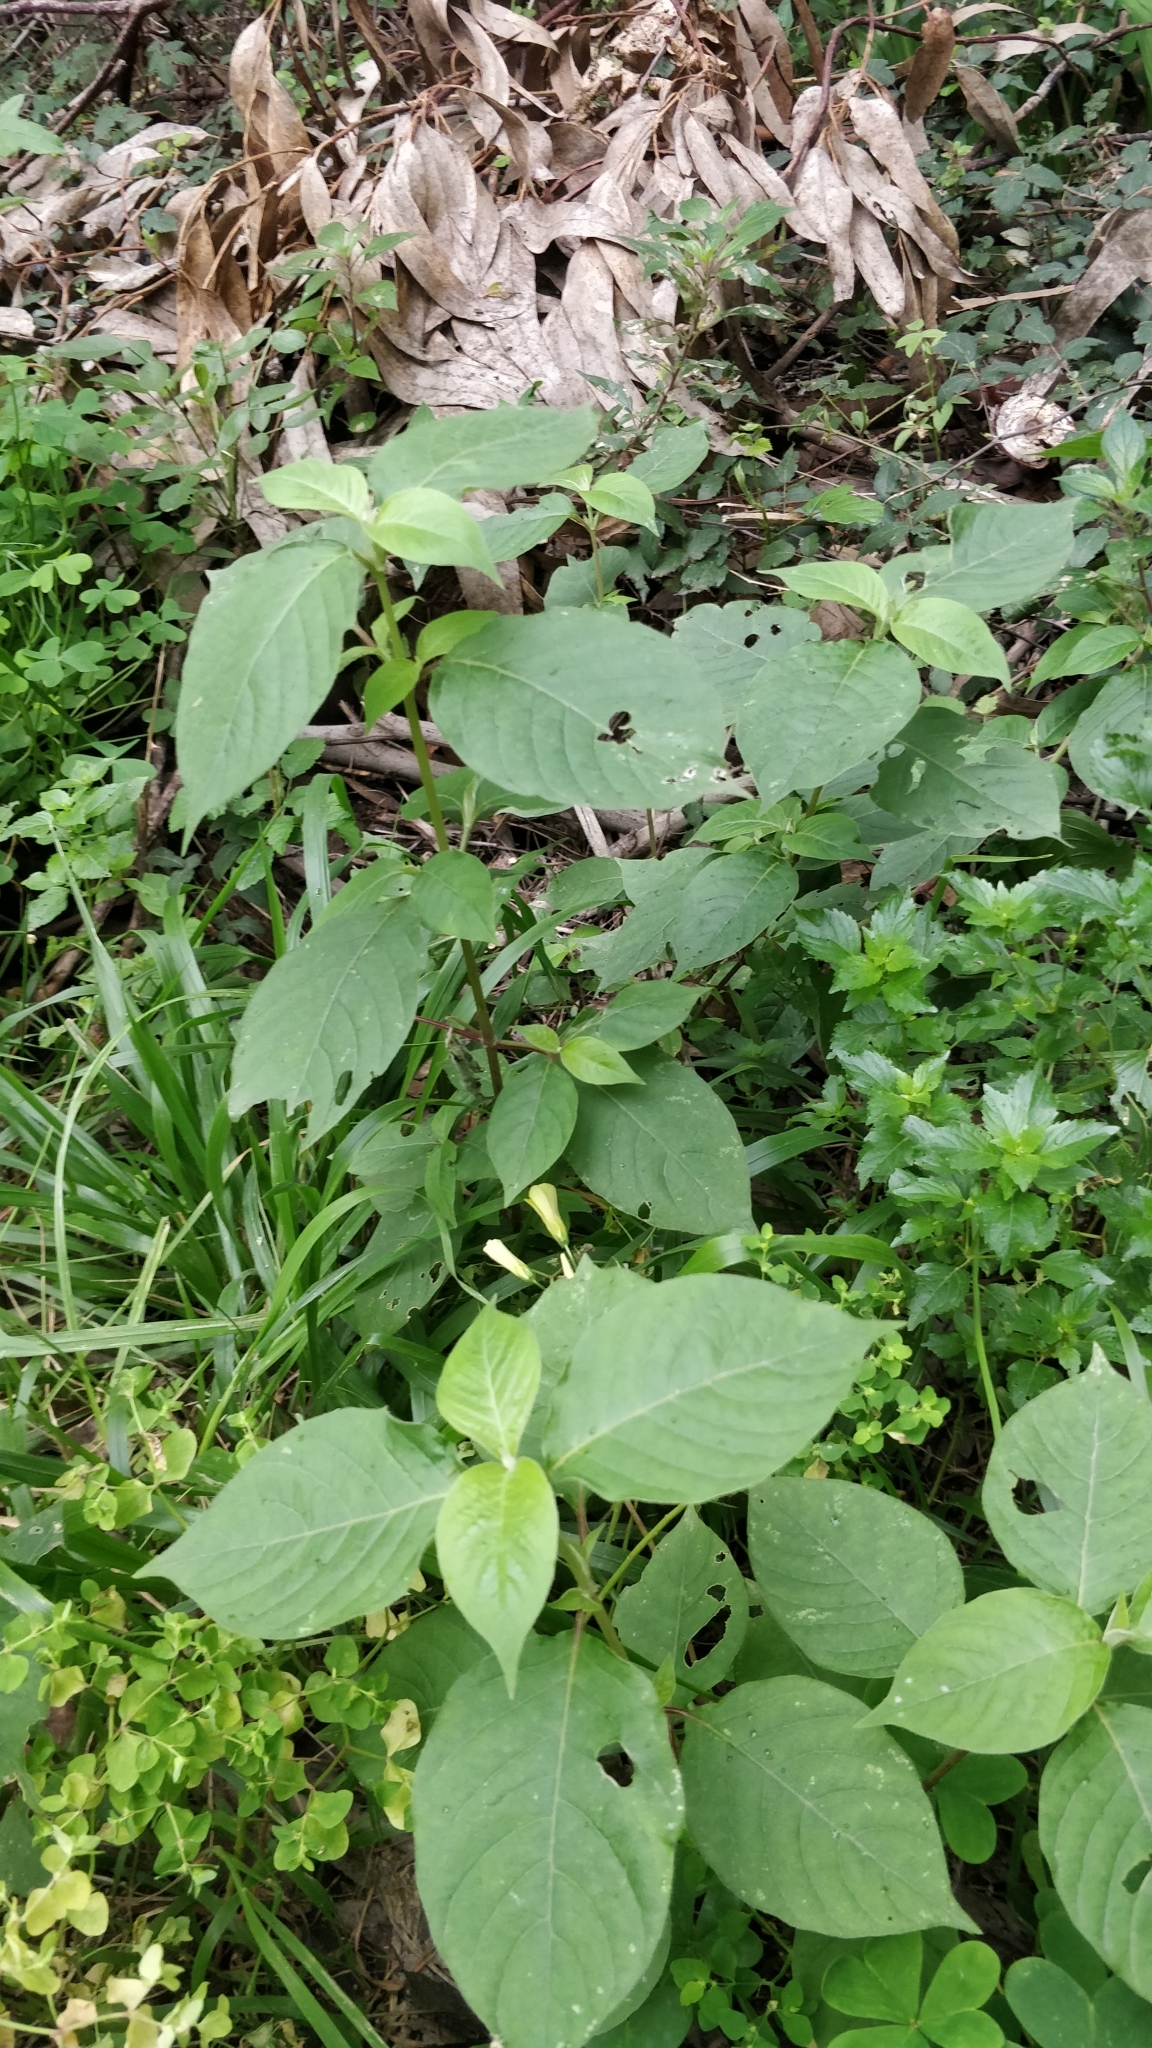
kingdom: Plantae
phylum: Tracheophyta
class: Magnoliopsida
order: Caryophyllales
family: Amaranthaceae
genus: Achyranthes
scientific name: Achyranthes aspera
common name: Devil's horsewhip
